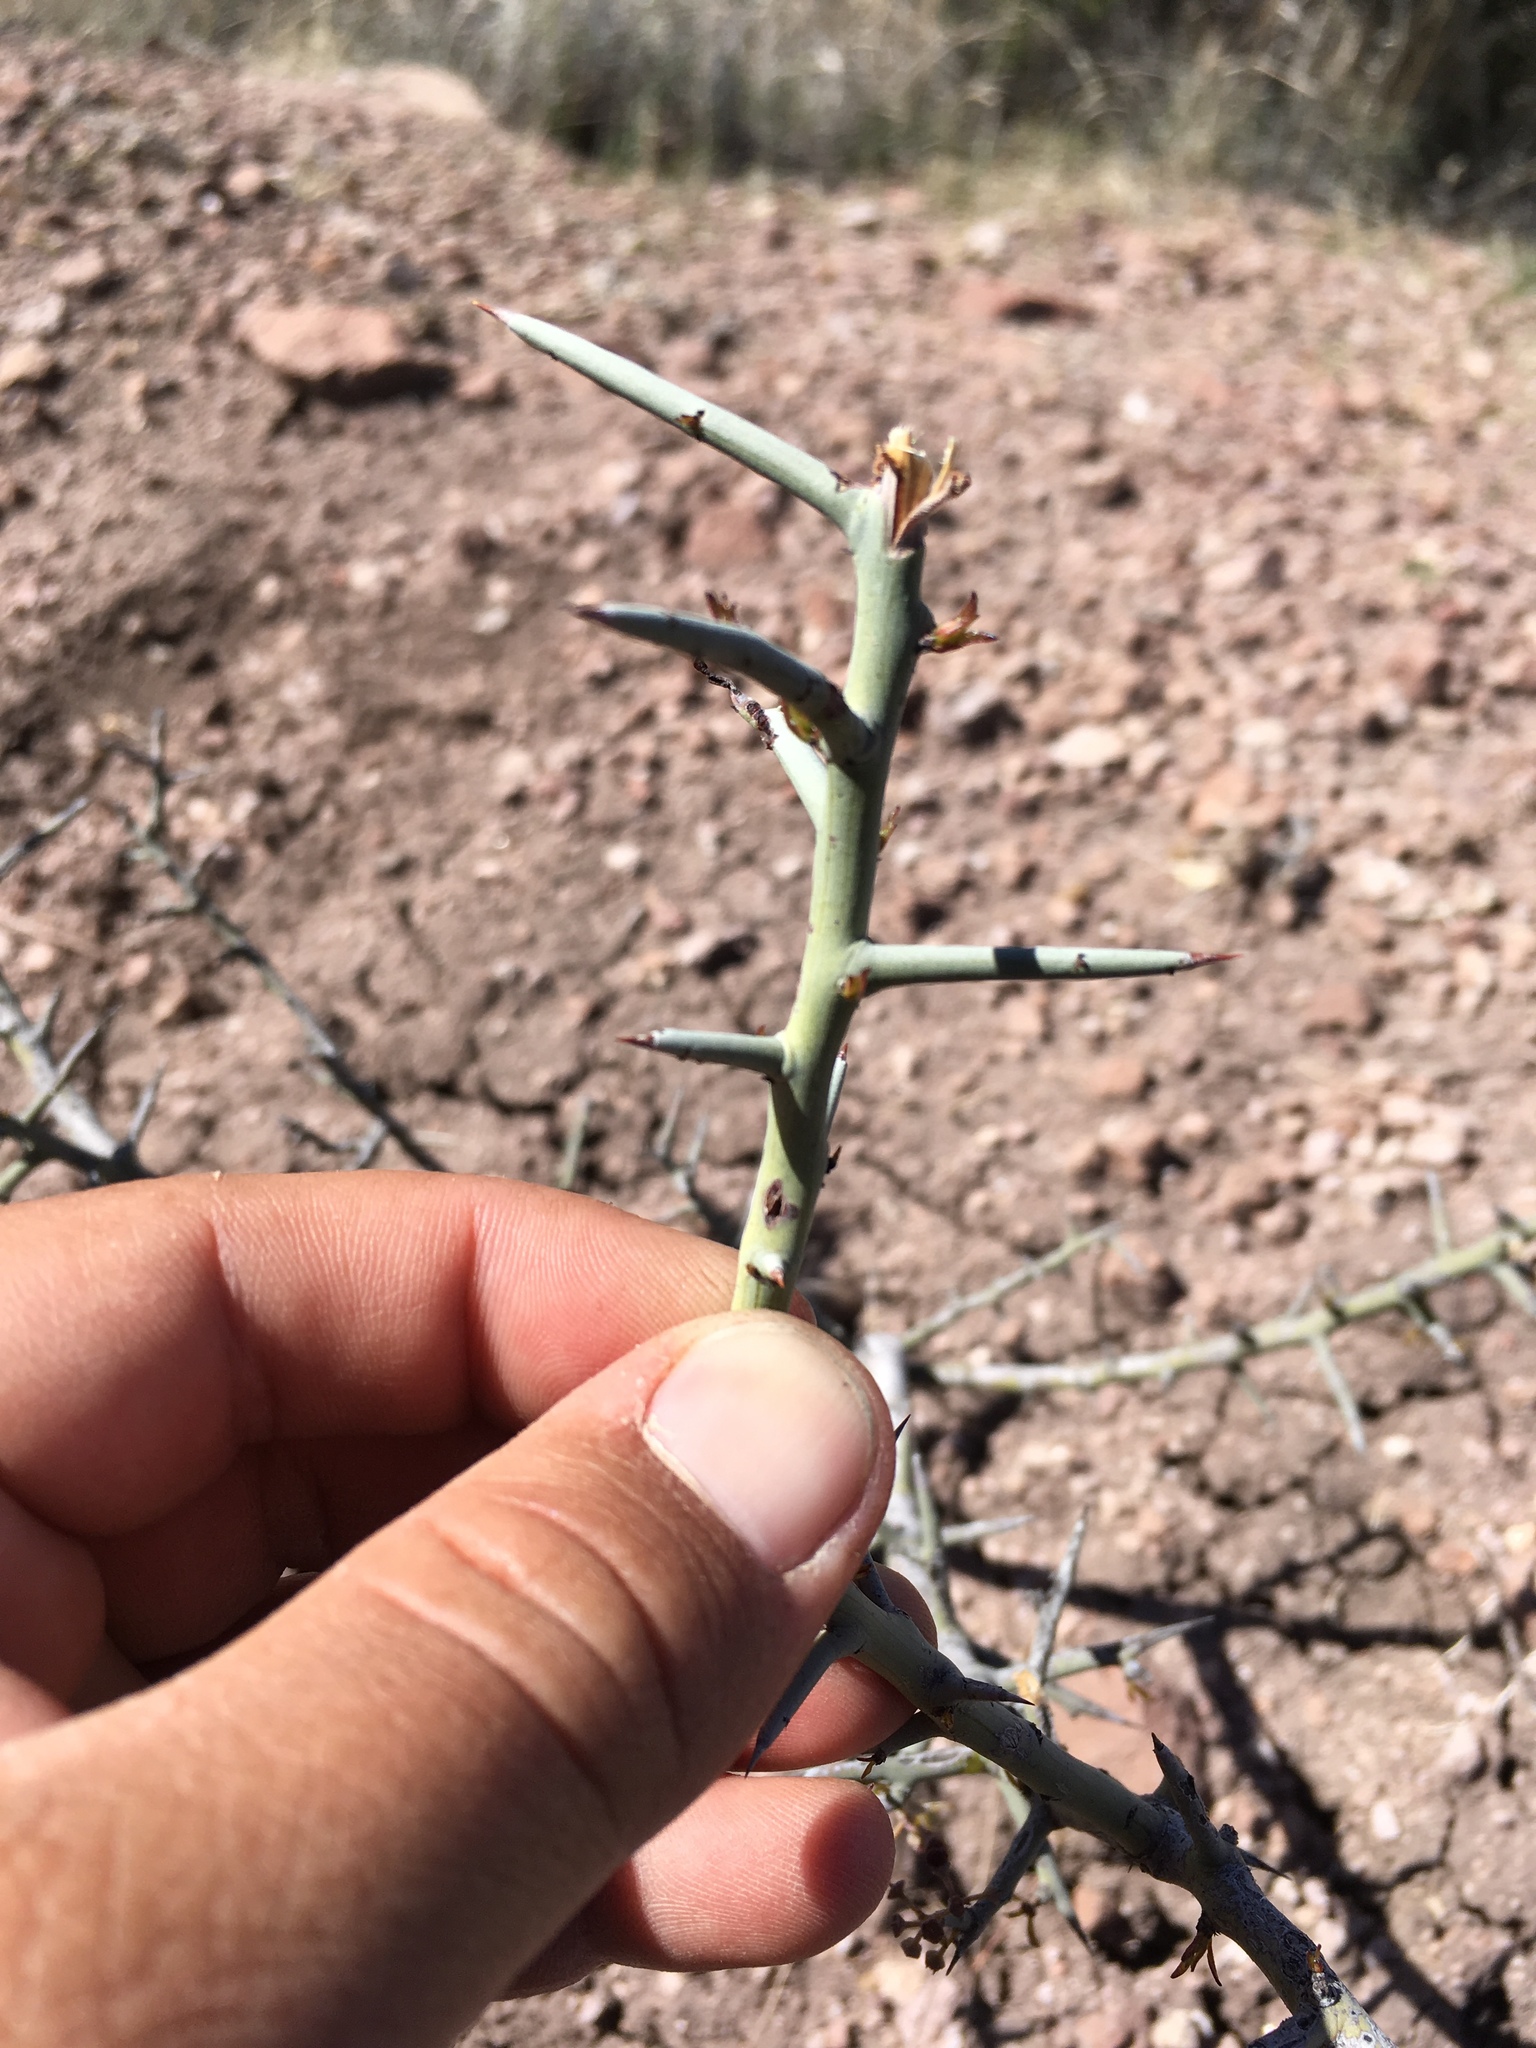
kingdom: Plantae
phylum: Tracheophyta
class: Magnoliopsida
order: Rosales
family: Rhamnaceae
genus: Sarcomphalus
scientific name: Sarcomphalus obtusifolius
